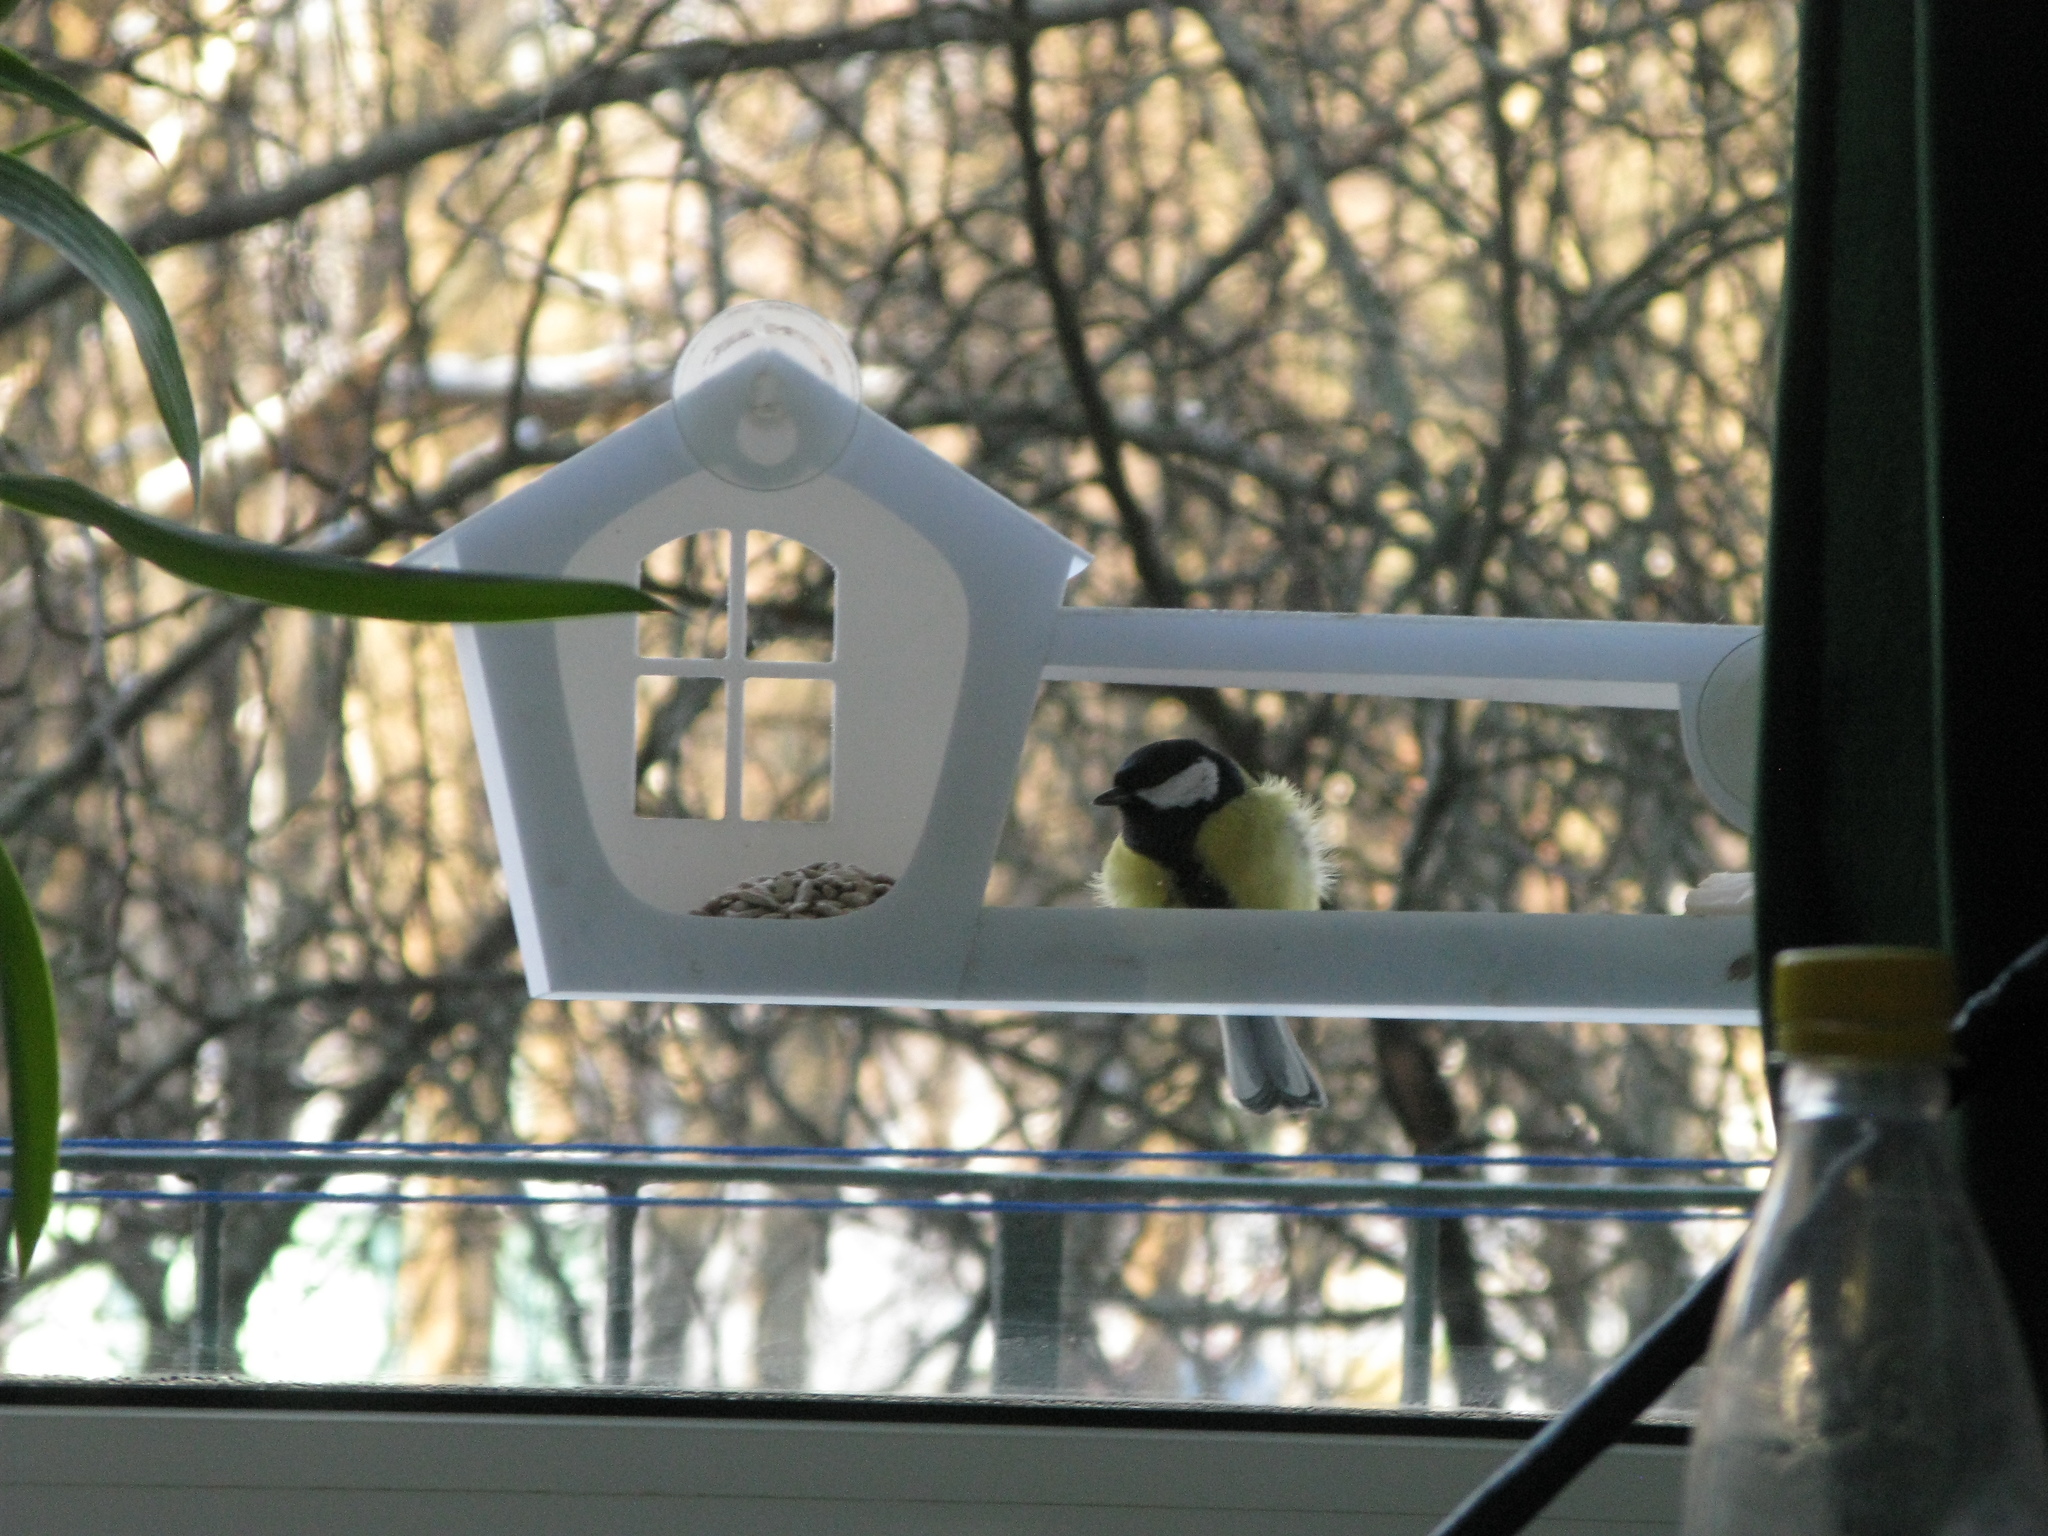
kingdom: Animalia
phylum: Chordata
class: Aves
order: Passeriformes
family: Paridae
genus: Parus
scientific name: Parus major
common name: Great tit
